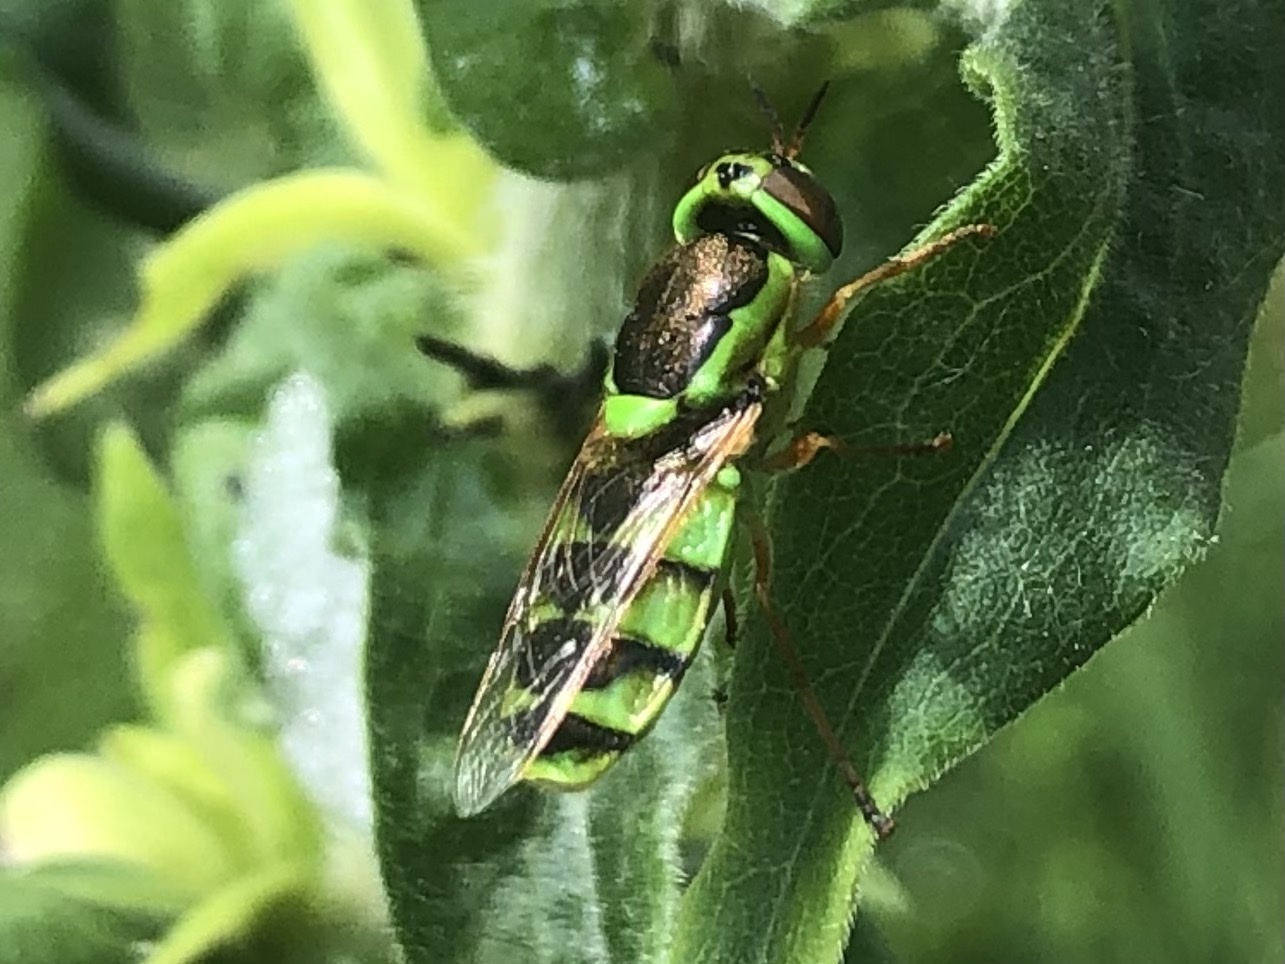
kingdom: Animalia
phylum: Arthropoda
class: Insecta
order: Diptera
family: Stratiomyidae
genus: Odontomyia
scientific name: Odontomyia cincta
